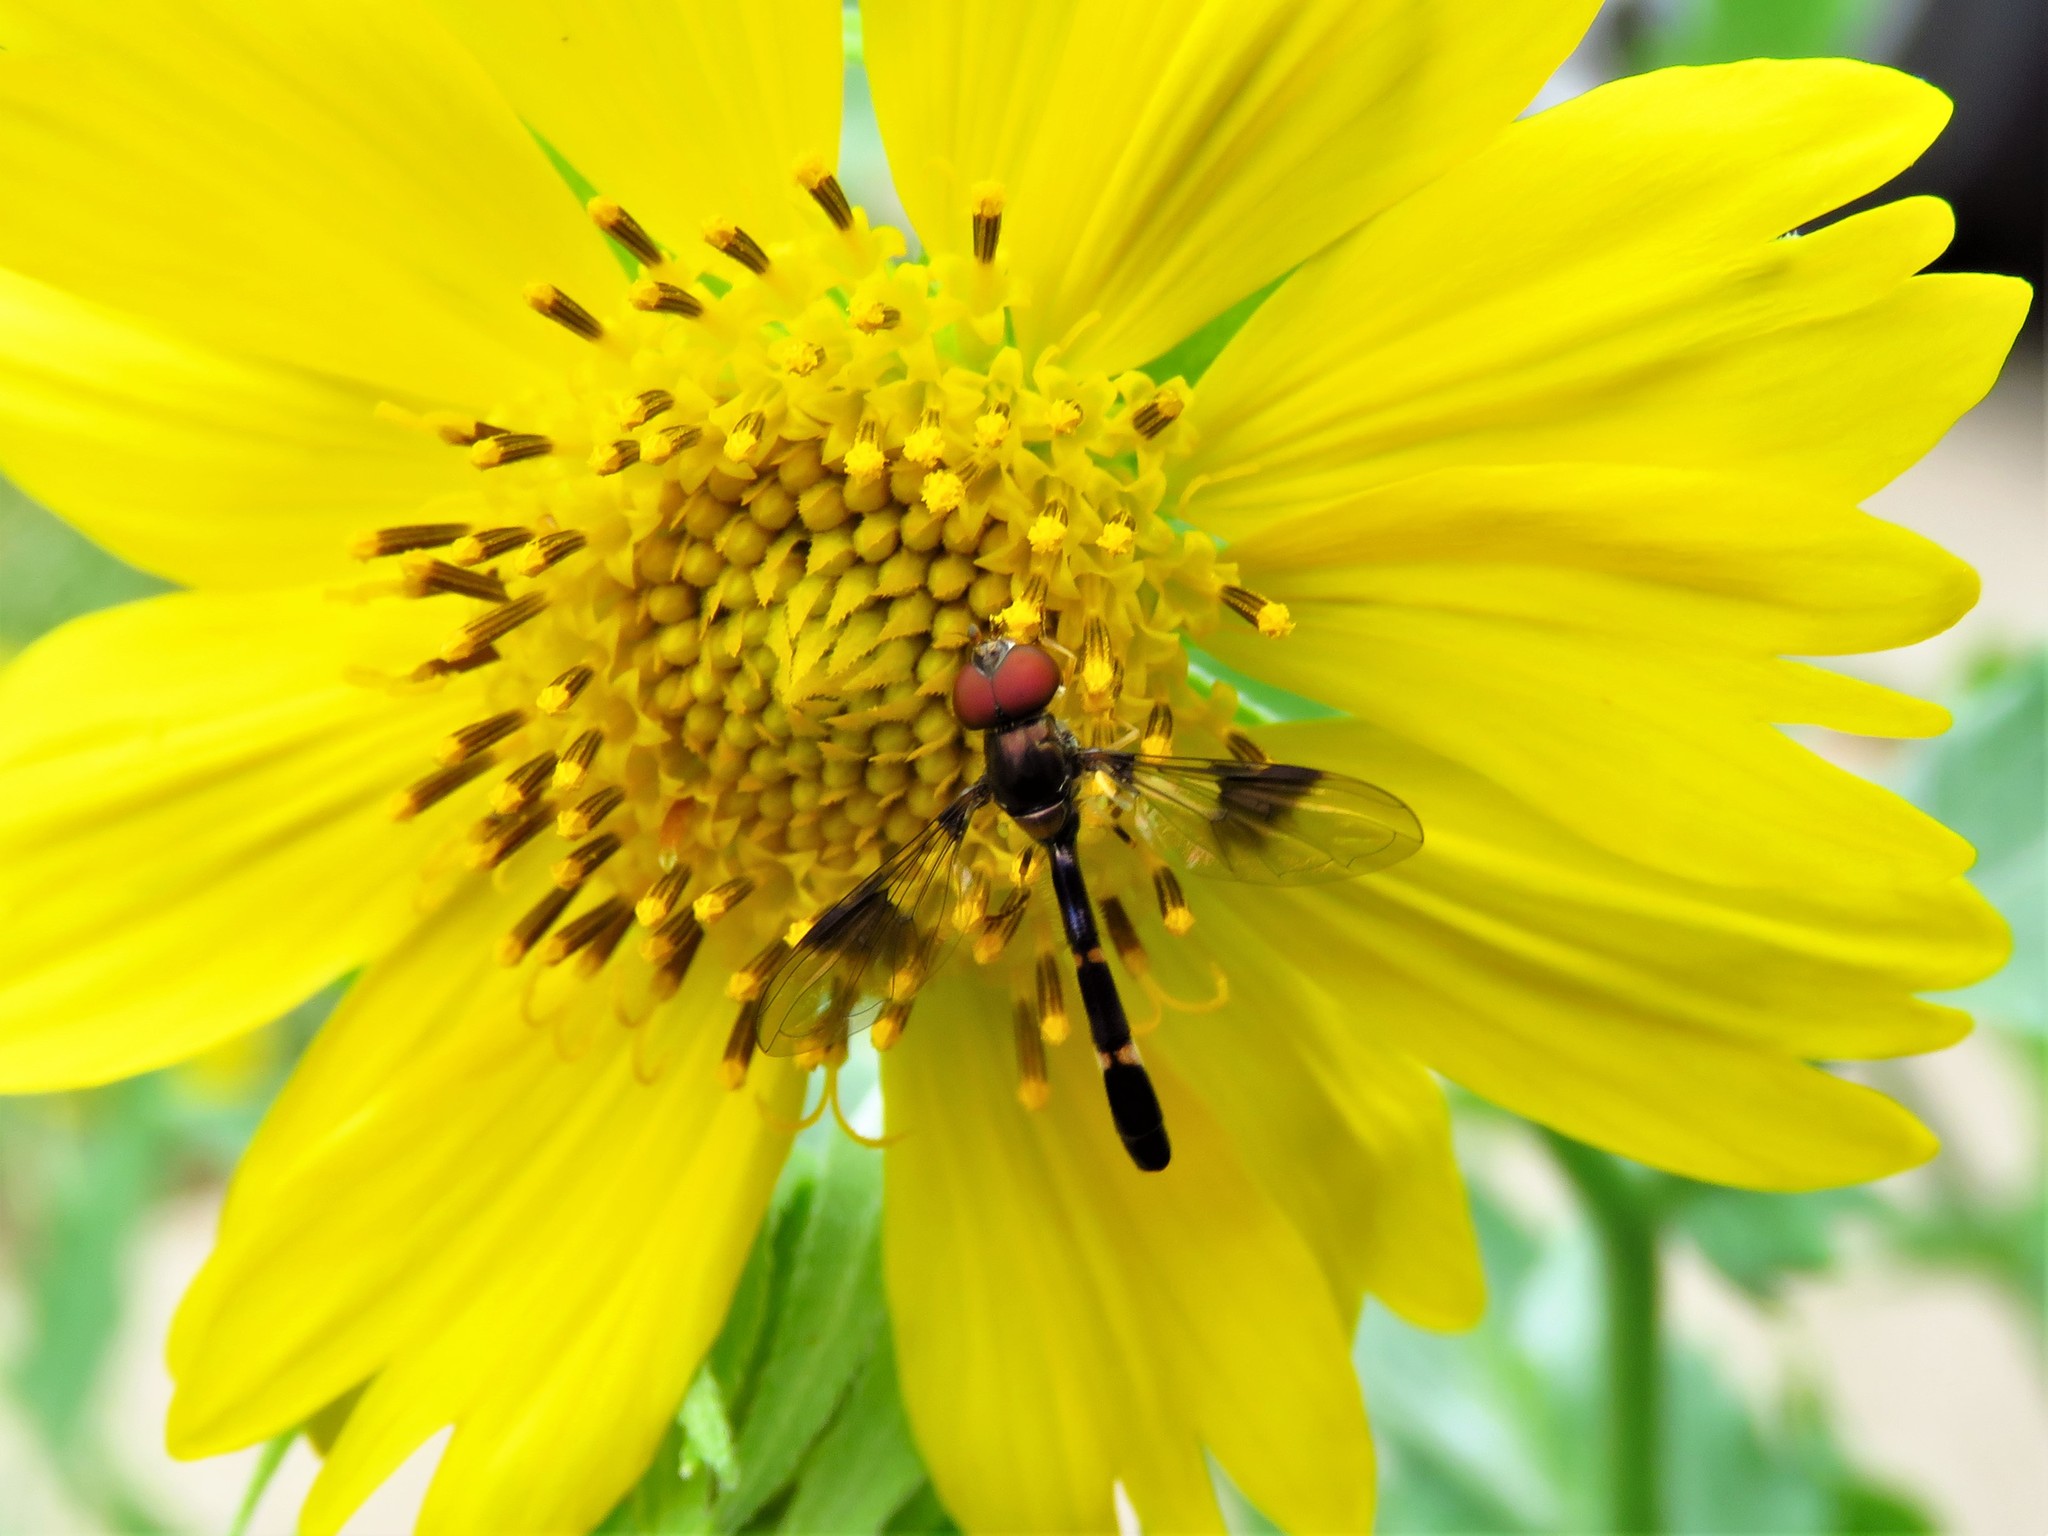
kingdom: Animalia
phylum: Arthropoda
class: Insecta
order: Diptera
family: Syrphidae
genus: Hypocritanus
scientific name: Hypocritanus fascipennis
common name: Eastern band-winged hover fly
